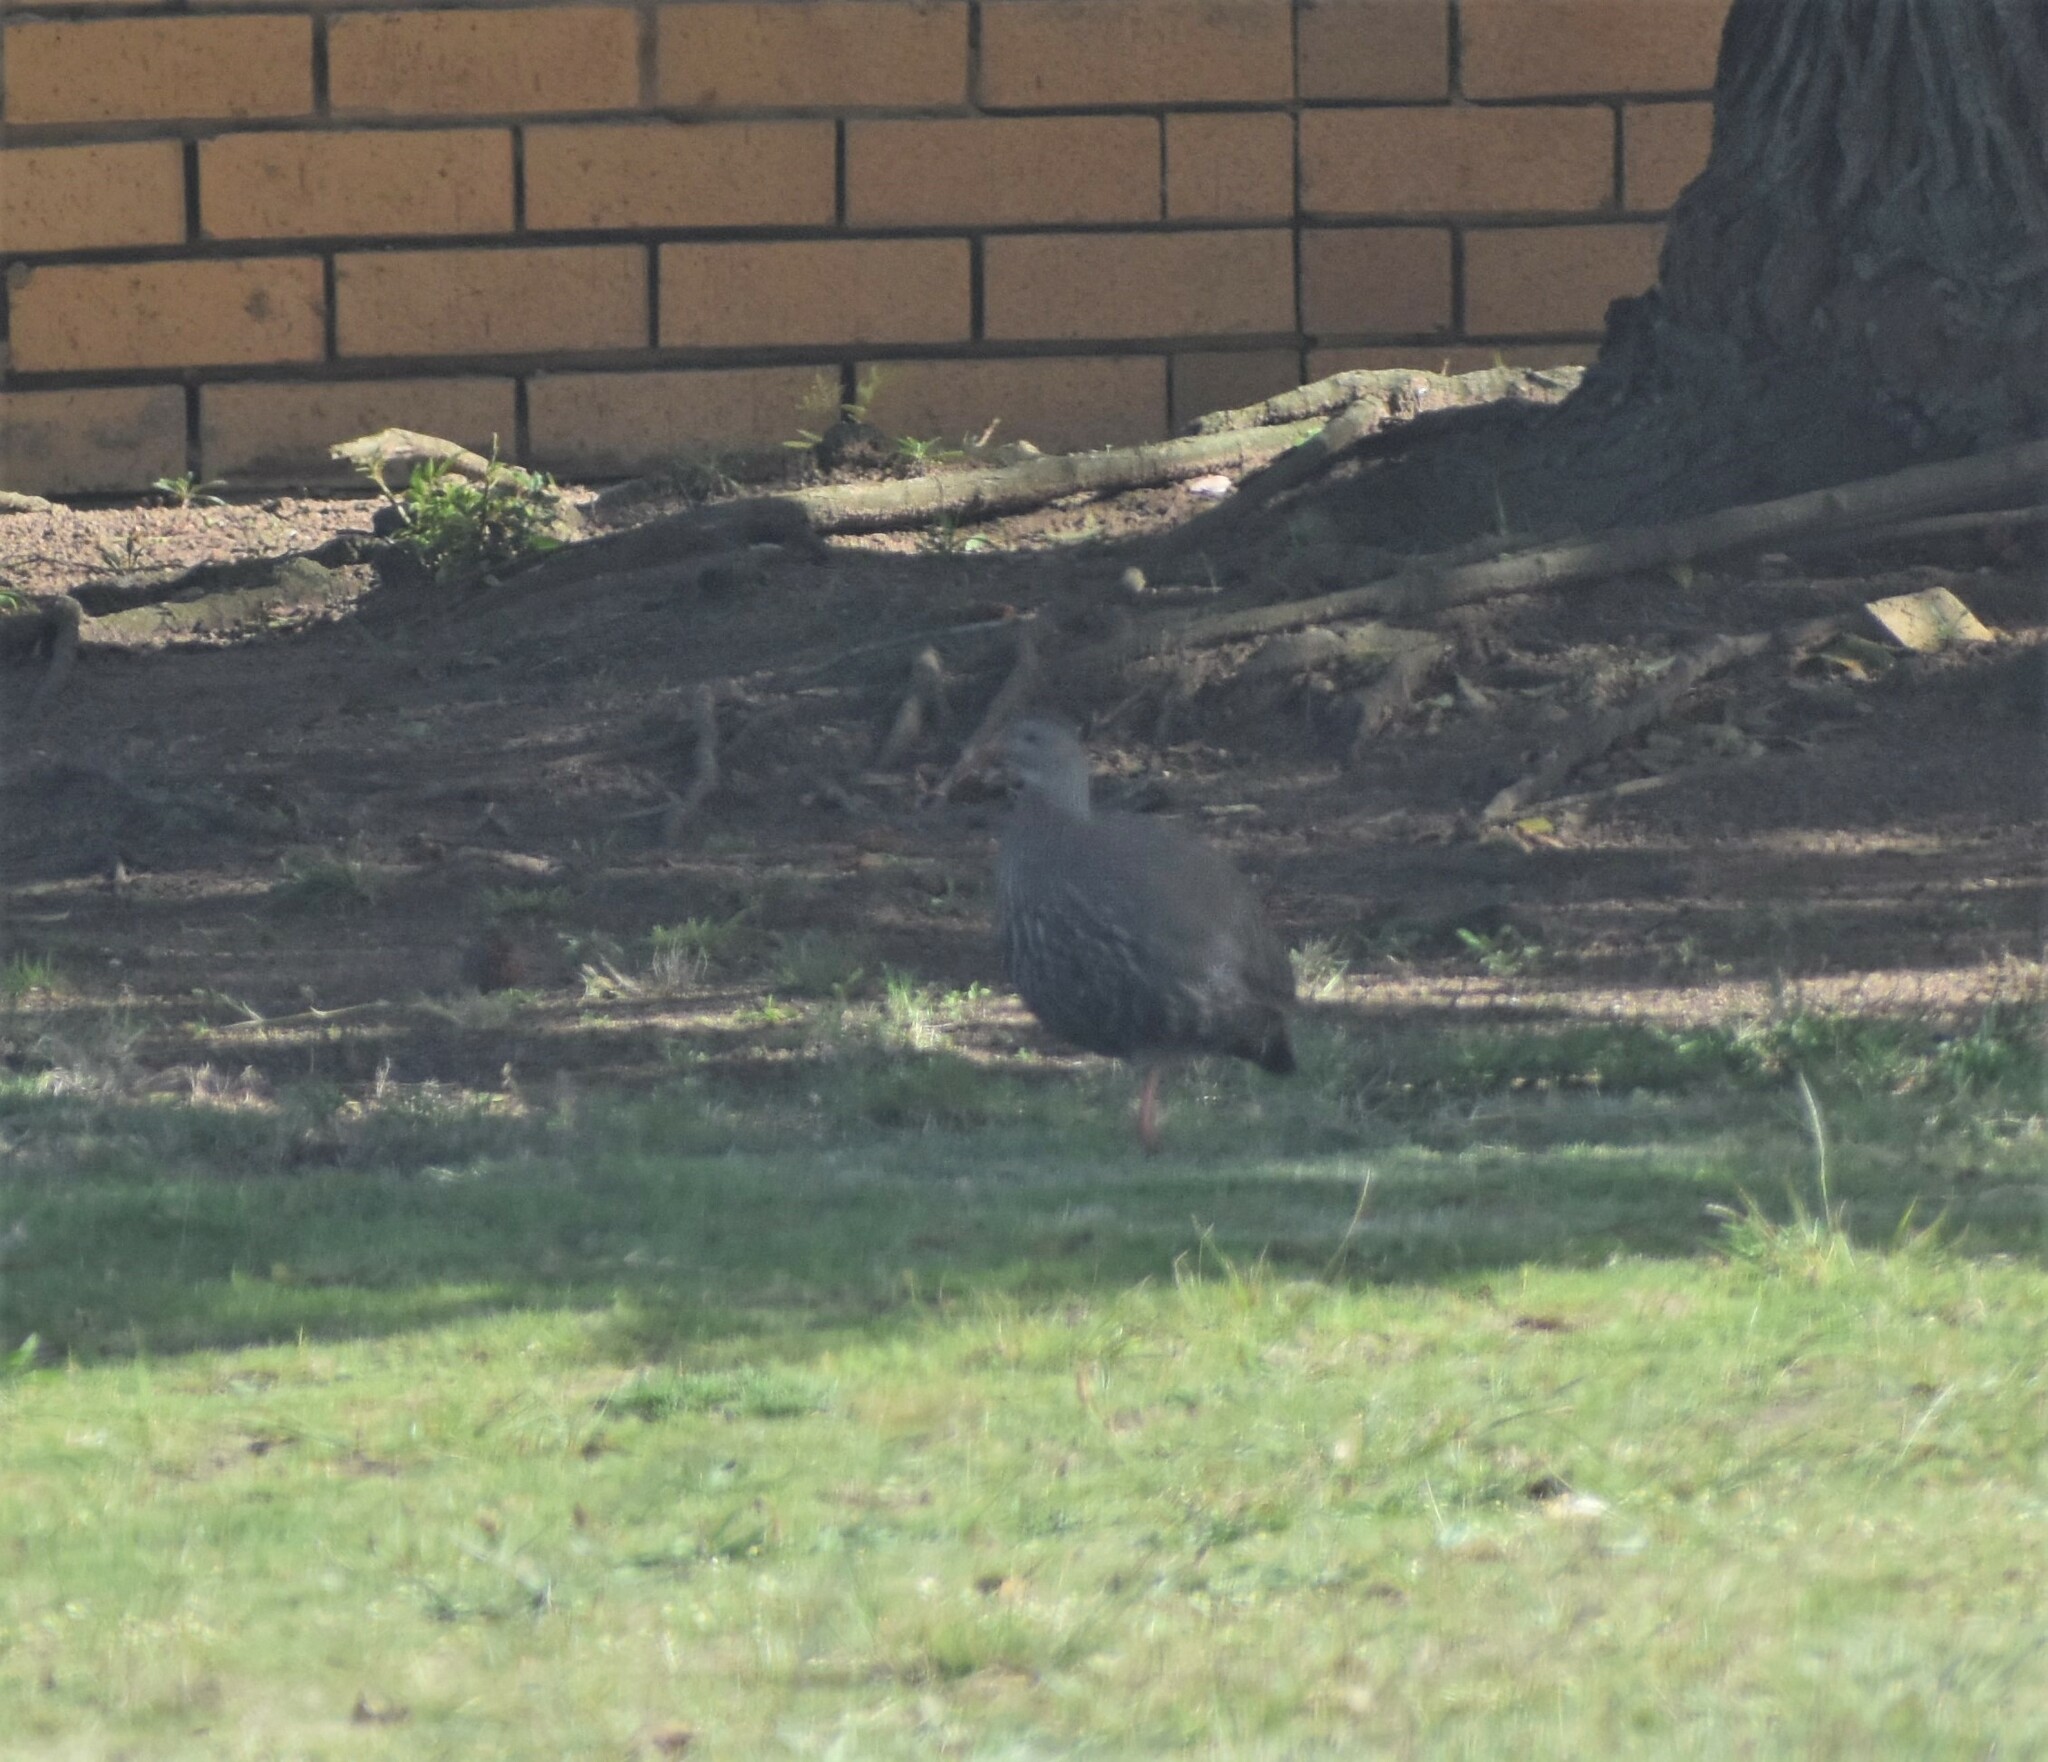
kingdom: Animalia
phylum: Chordata
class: Aves
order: Galliformes
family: Phasianidae
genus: Pternistis
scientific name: Pternistis capensis
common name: Cape spurfowl
